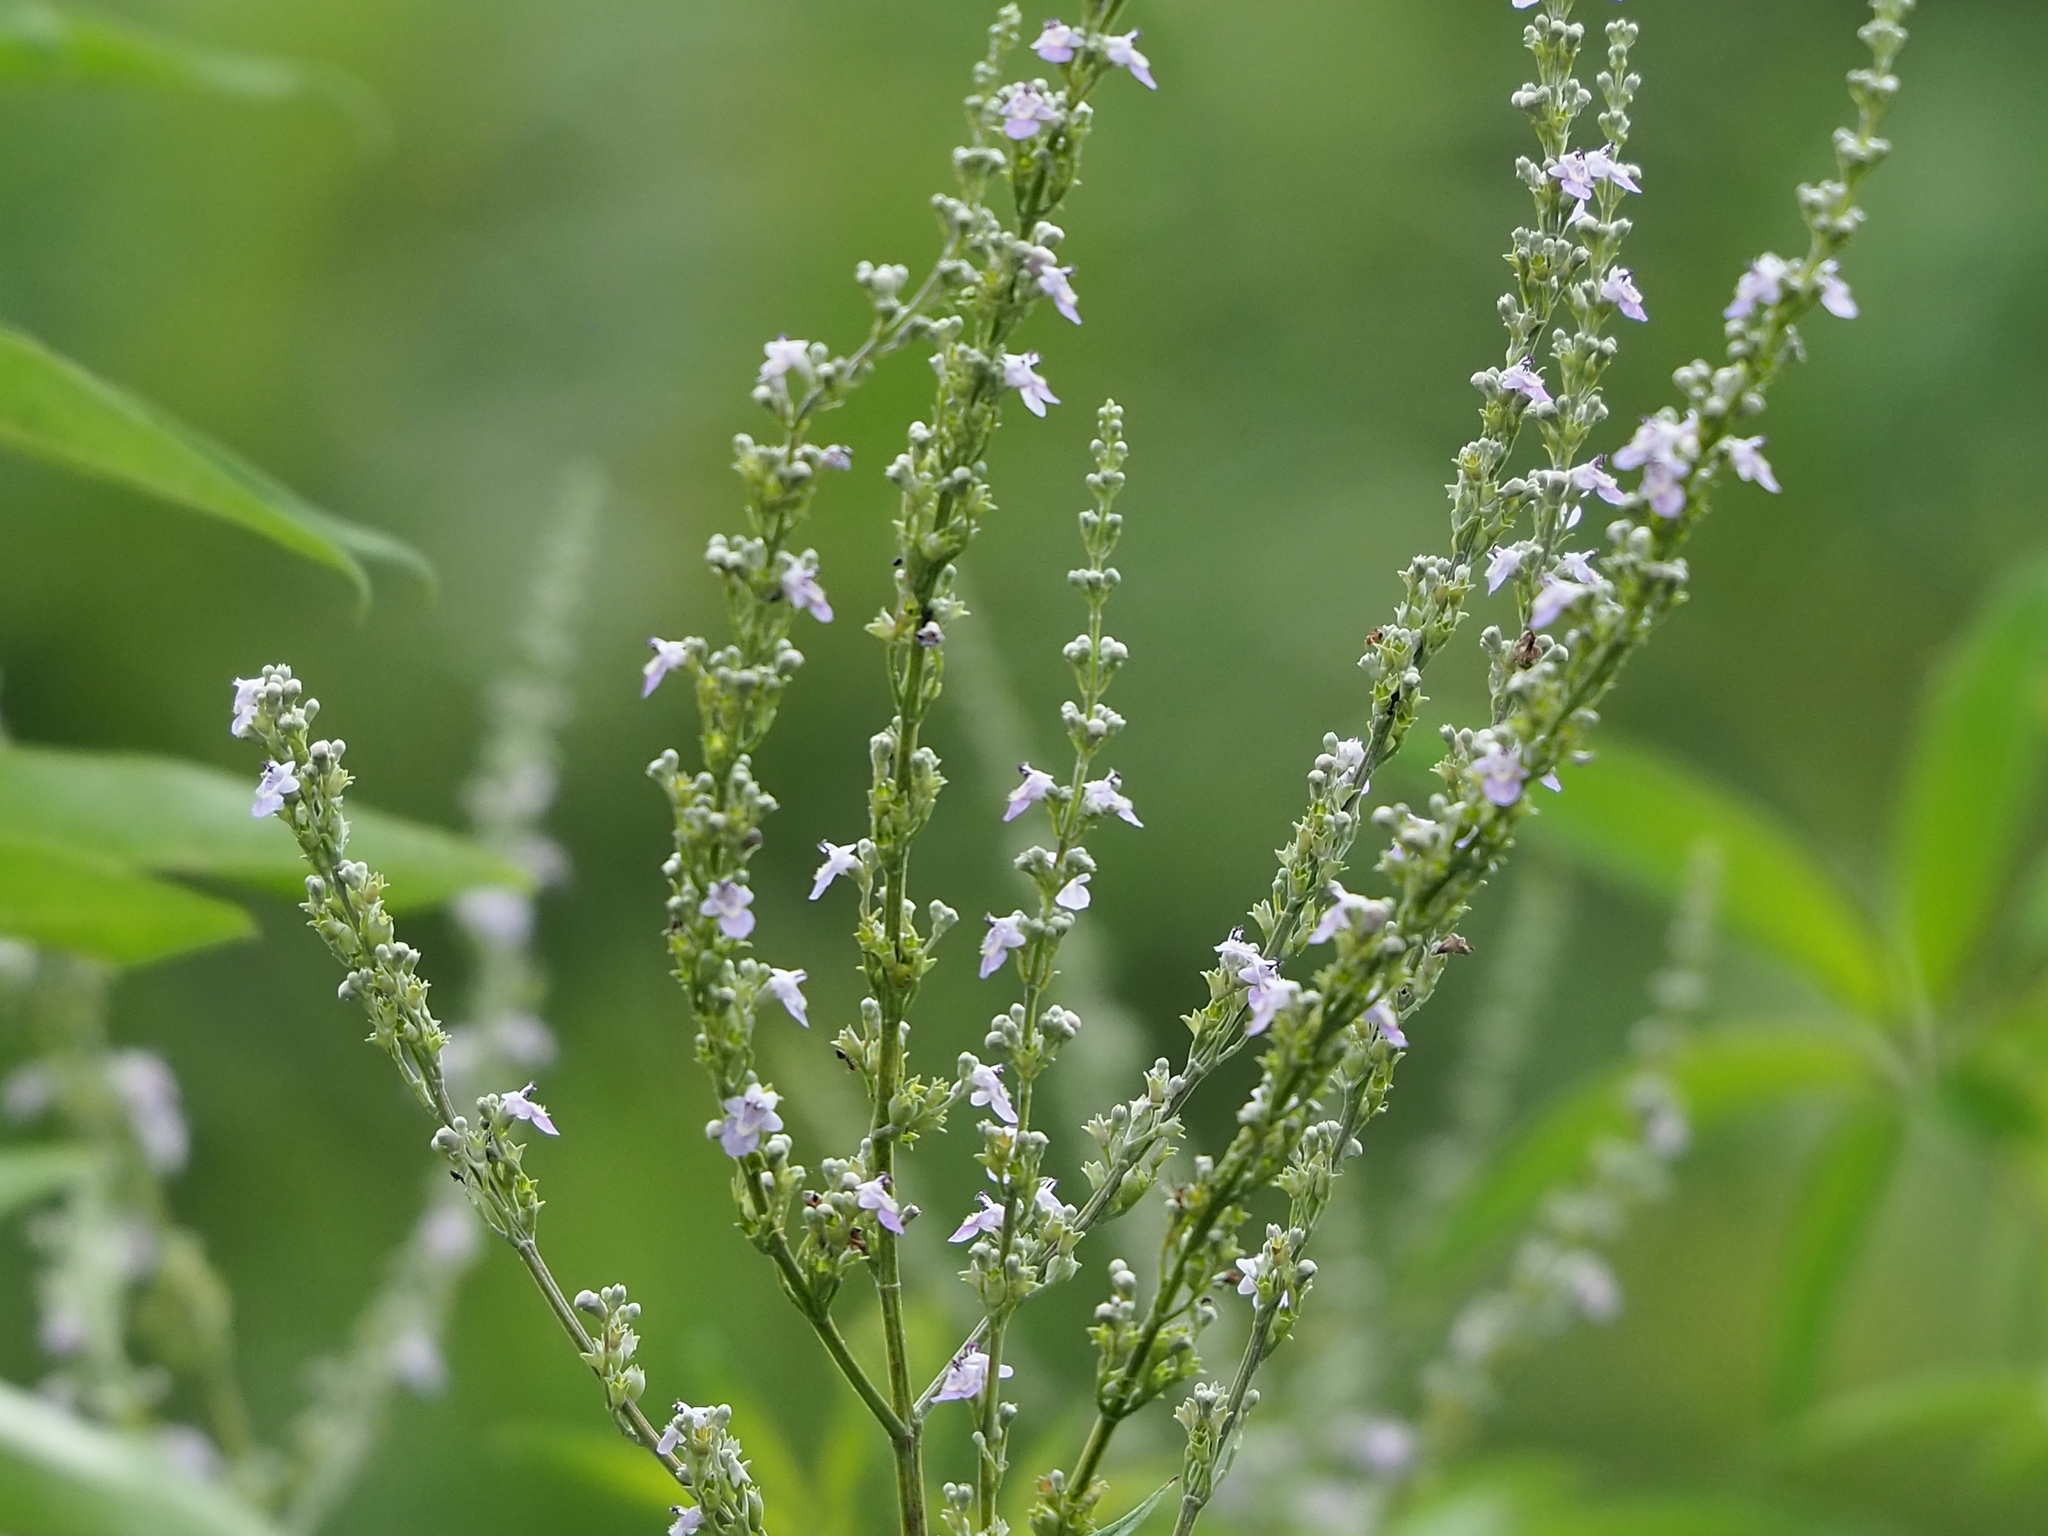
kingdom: Plantae
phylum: Tracheophyta
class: Magnoliopsida
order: Lamiales
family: Lamiaceae
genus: Vitex
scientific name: Vitex negundo
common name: Chinese chastetree
